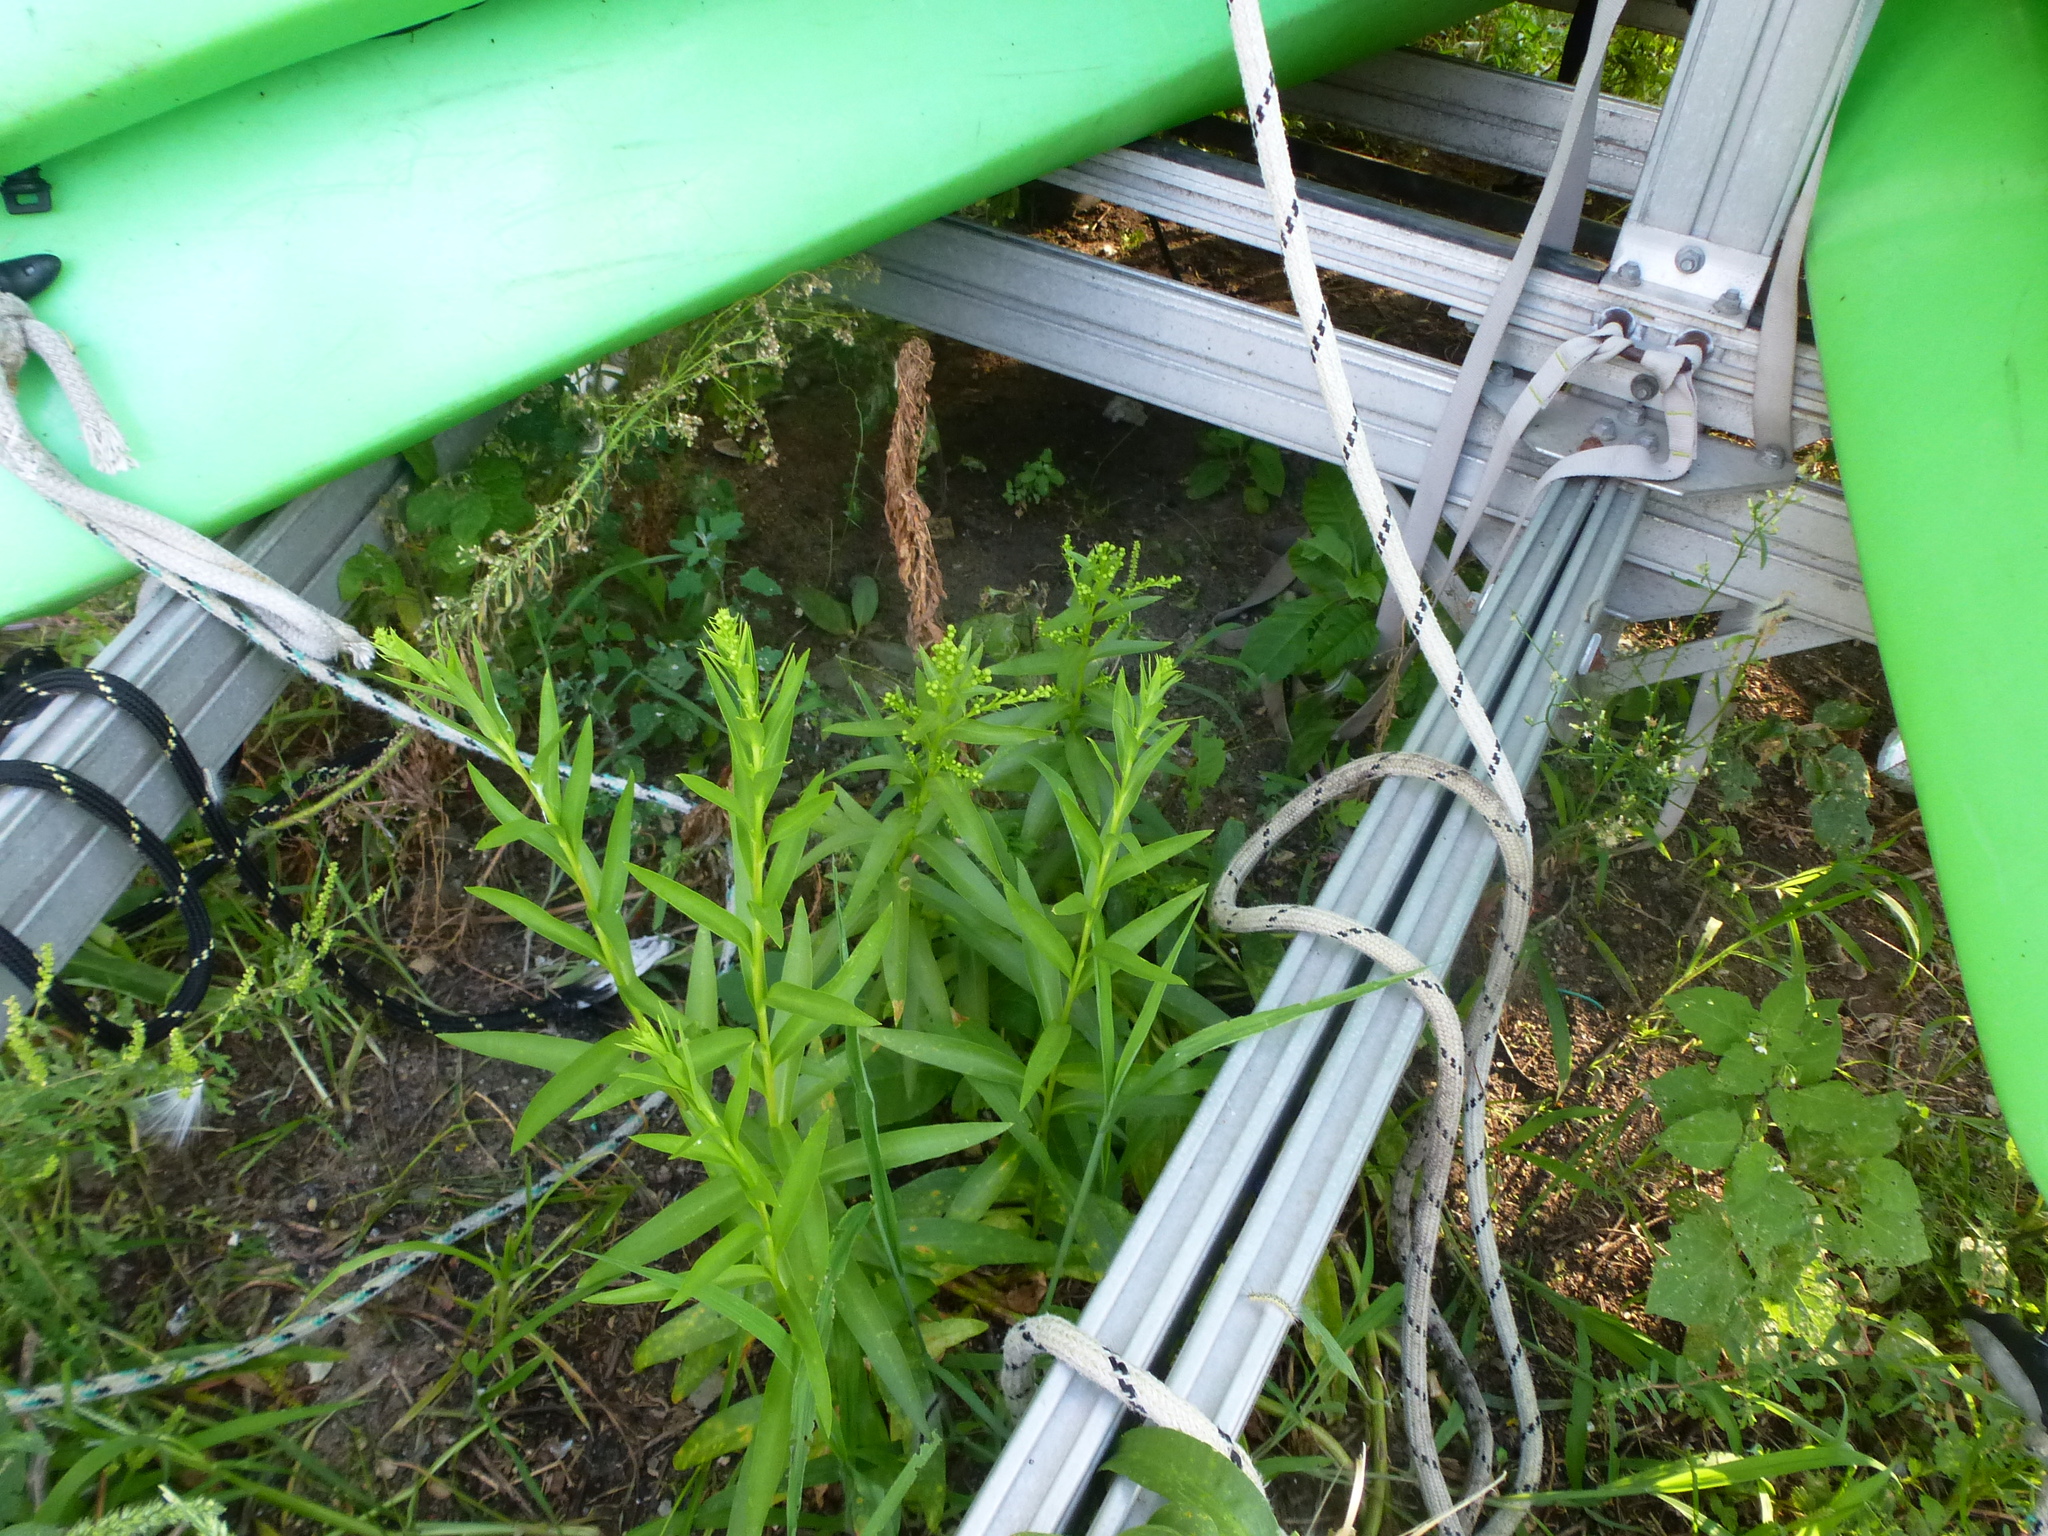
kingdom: Plantae
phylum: Tracheophyta
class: Magnoliopsida
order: Asterales
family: Asteraceae
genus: Solidago
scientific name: Solidago sempervirens
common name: Salt-marsh goldenrod
